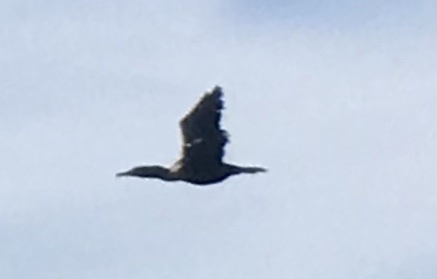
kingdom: Animalia
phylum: Chordata
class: Aves
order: Suliformes
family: Phalacrocoracidae
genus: Phalacrocorax
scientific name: Phalacrocorax auritus
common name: Double-crested cormorant
